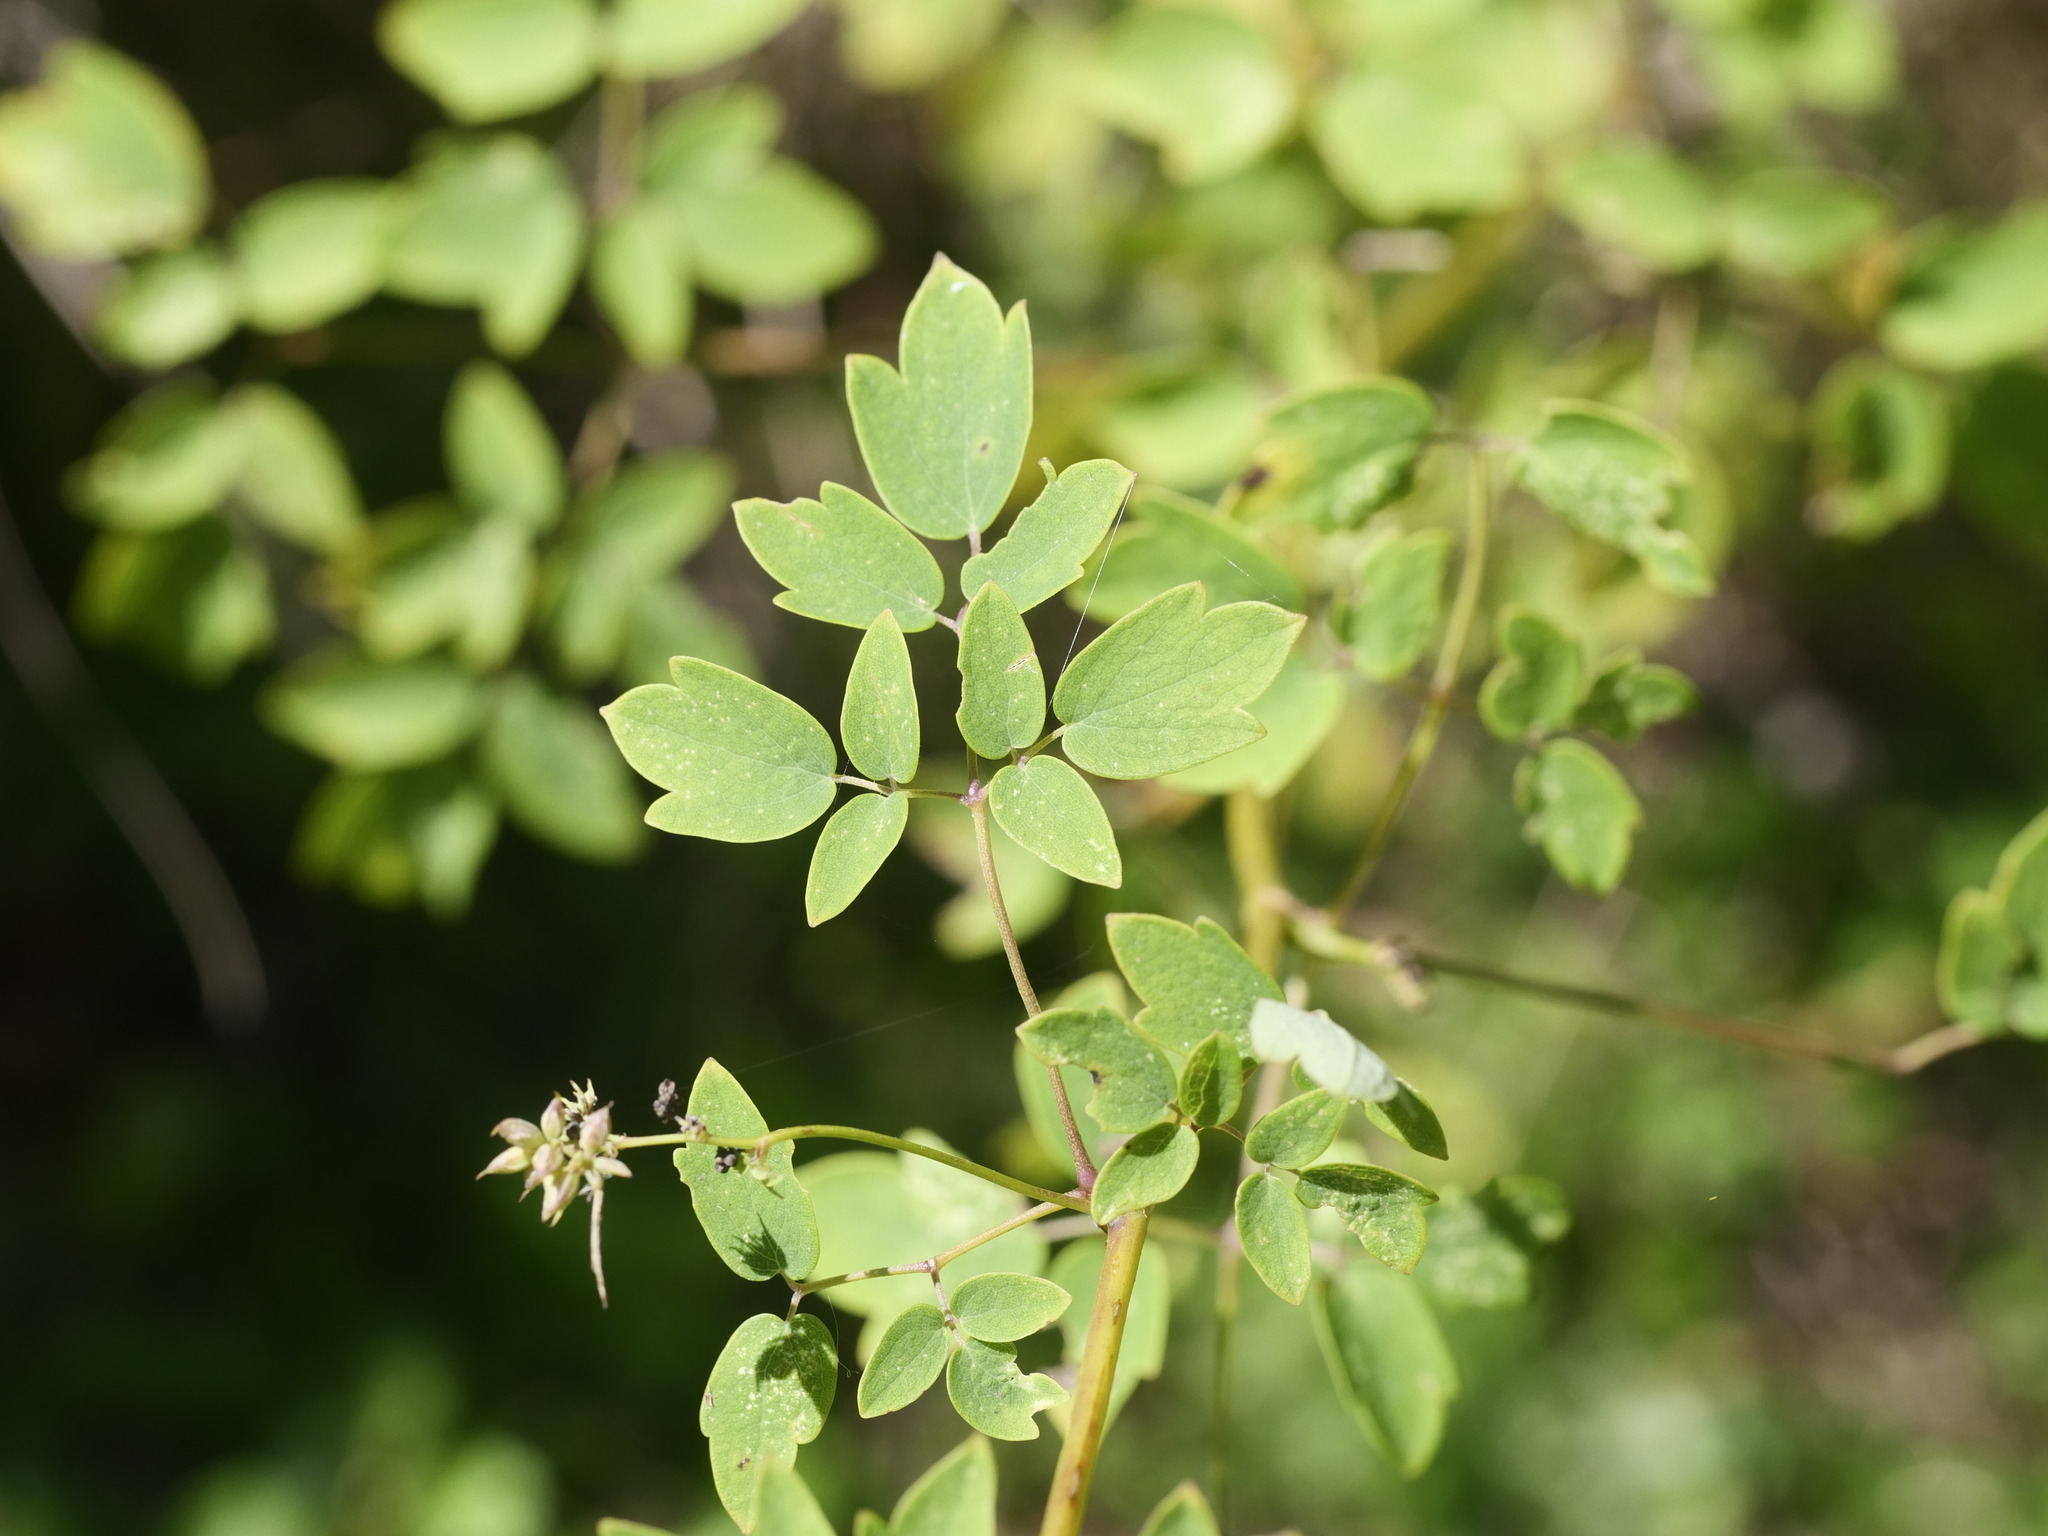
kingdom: Plantae
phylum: Tracheophyta
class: Magnoliopsida
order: Ranunculales
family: Ranunculaceae
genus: Thalictrum
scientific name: Thalictrum pubescens
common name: King-of-the-meadow
